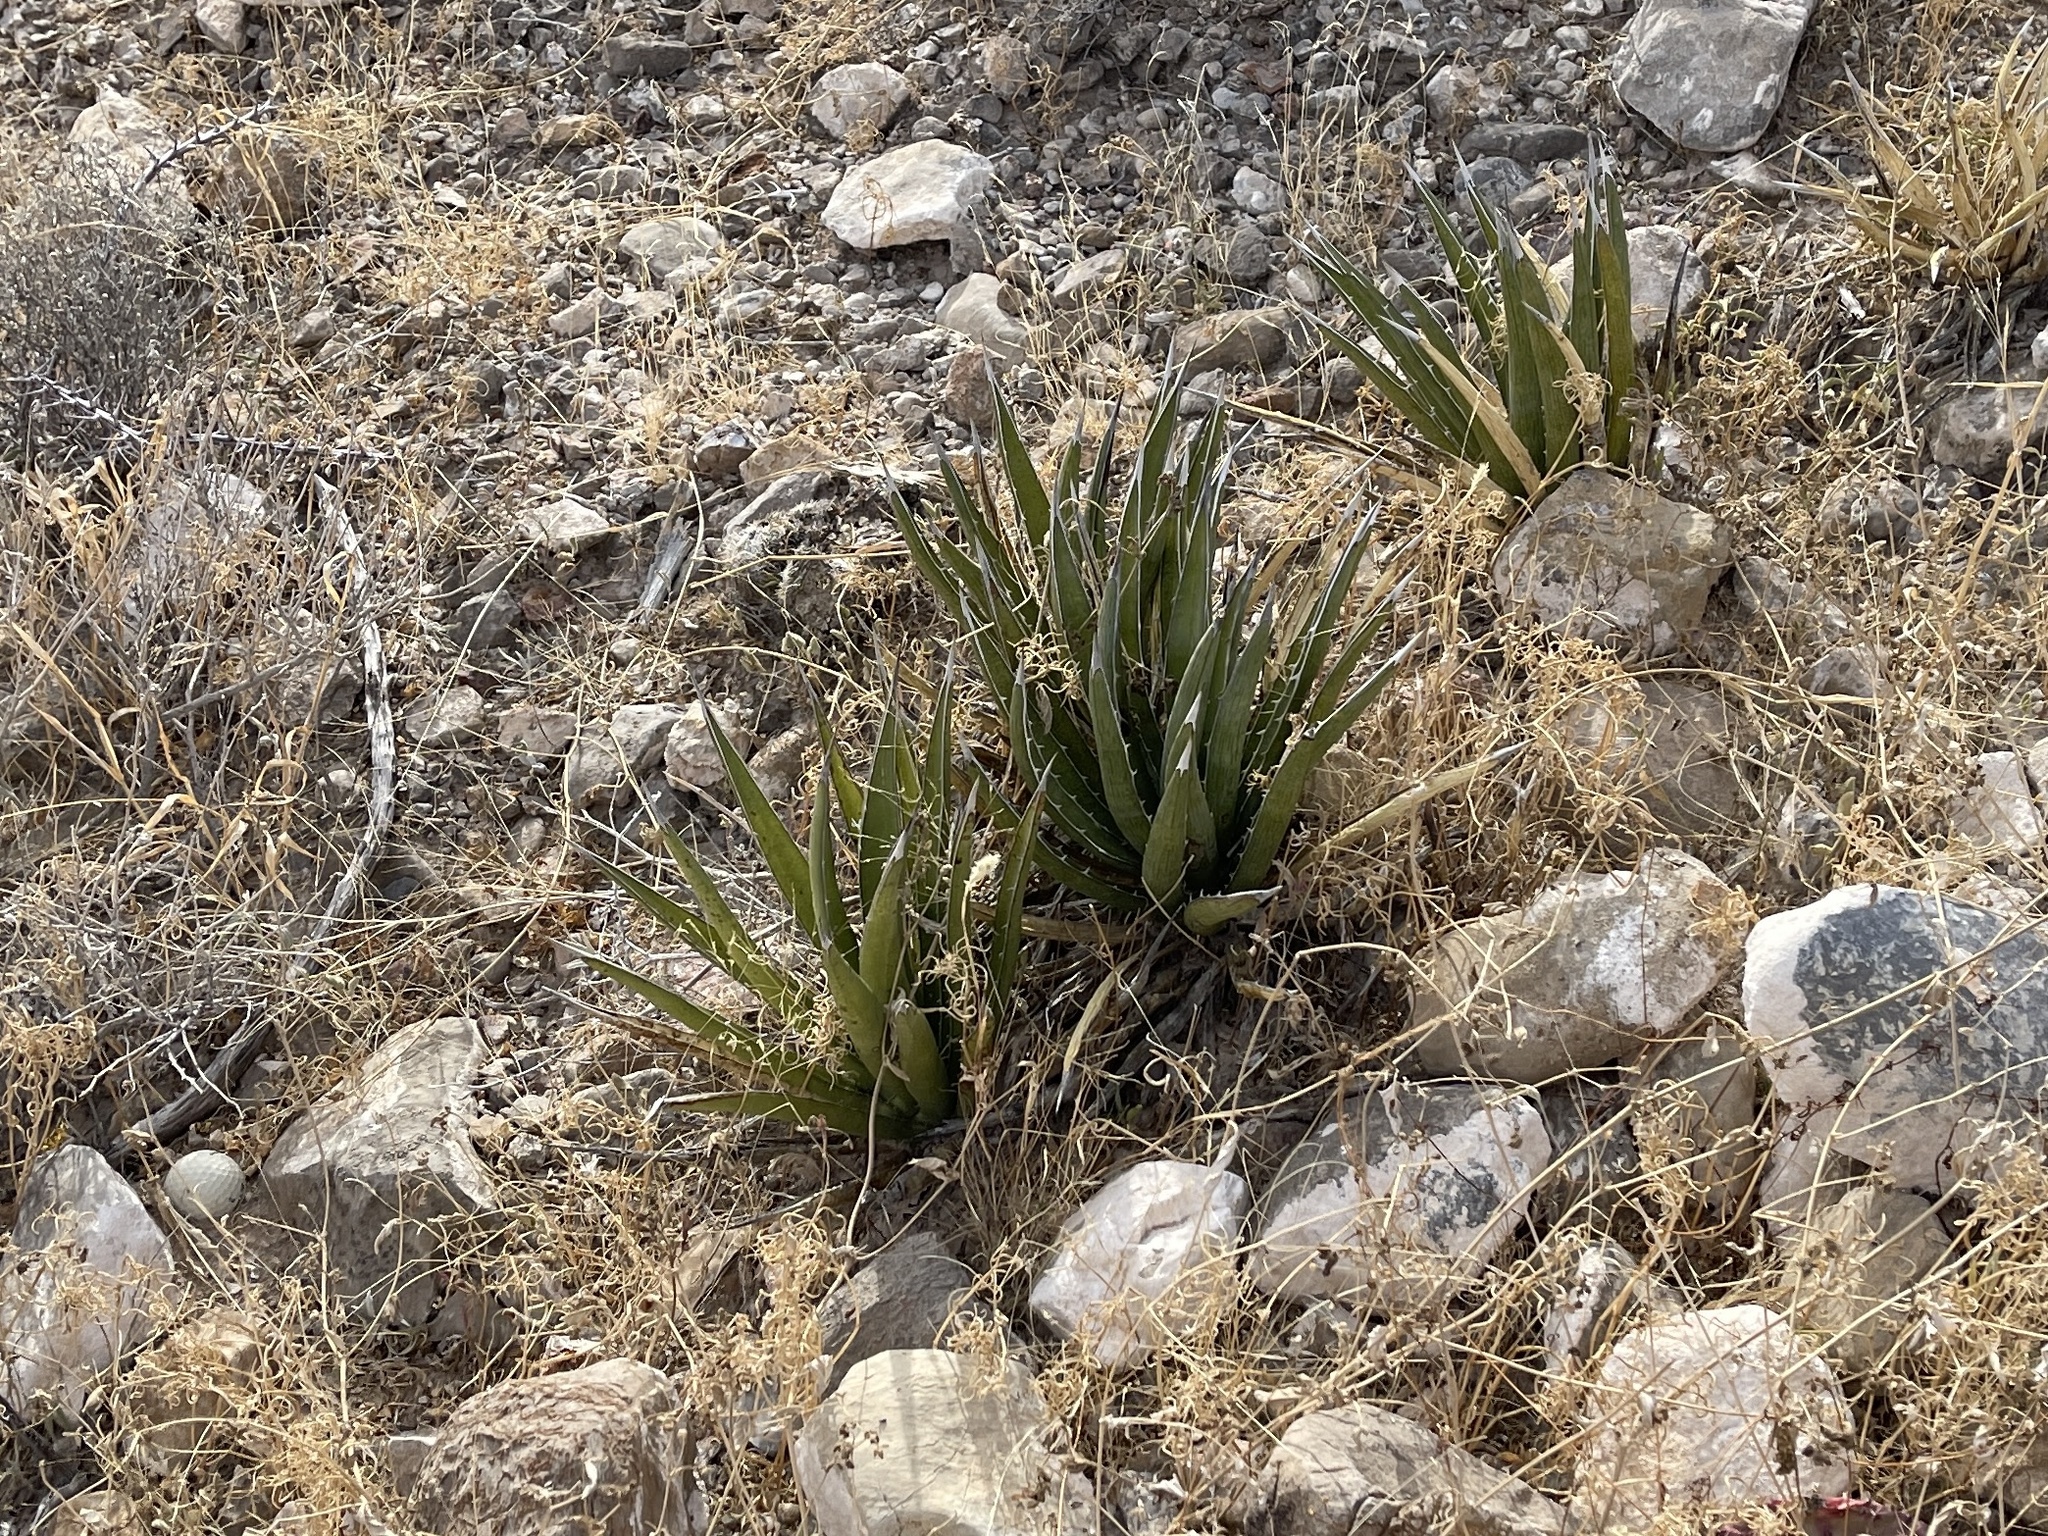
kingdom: Plantae
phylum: Tracheophyta
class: Liliopsida
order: Asparagales
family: Asparagaceae
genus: Agave
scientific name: Agave lechuguilla
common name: Lecheguilla agave
